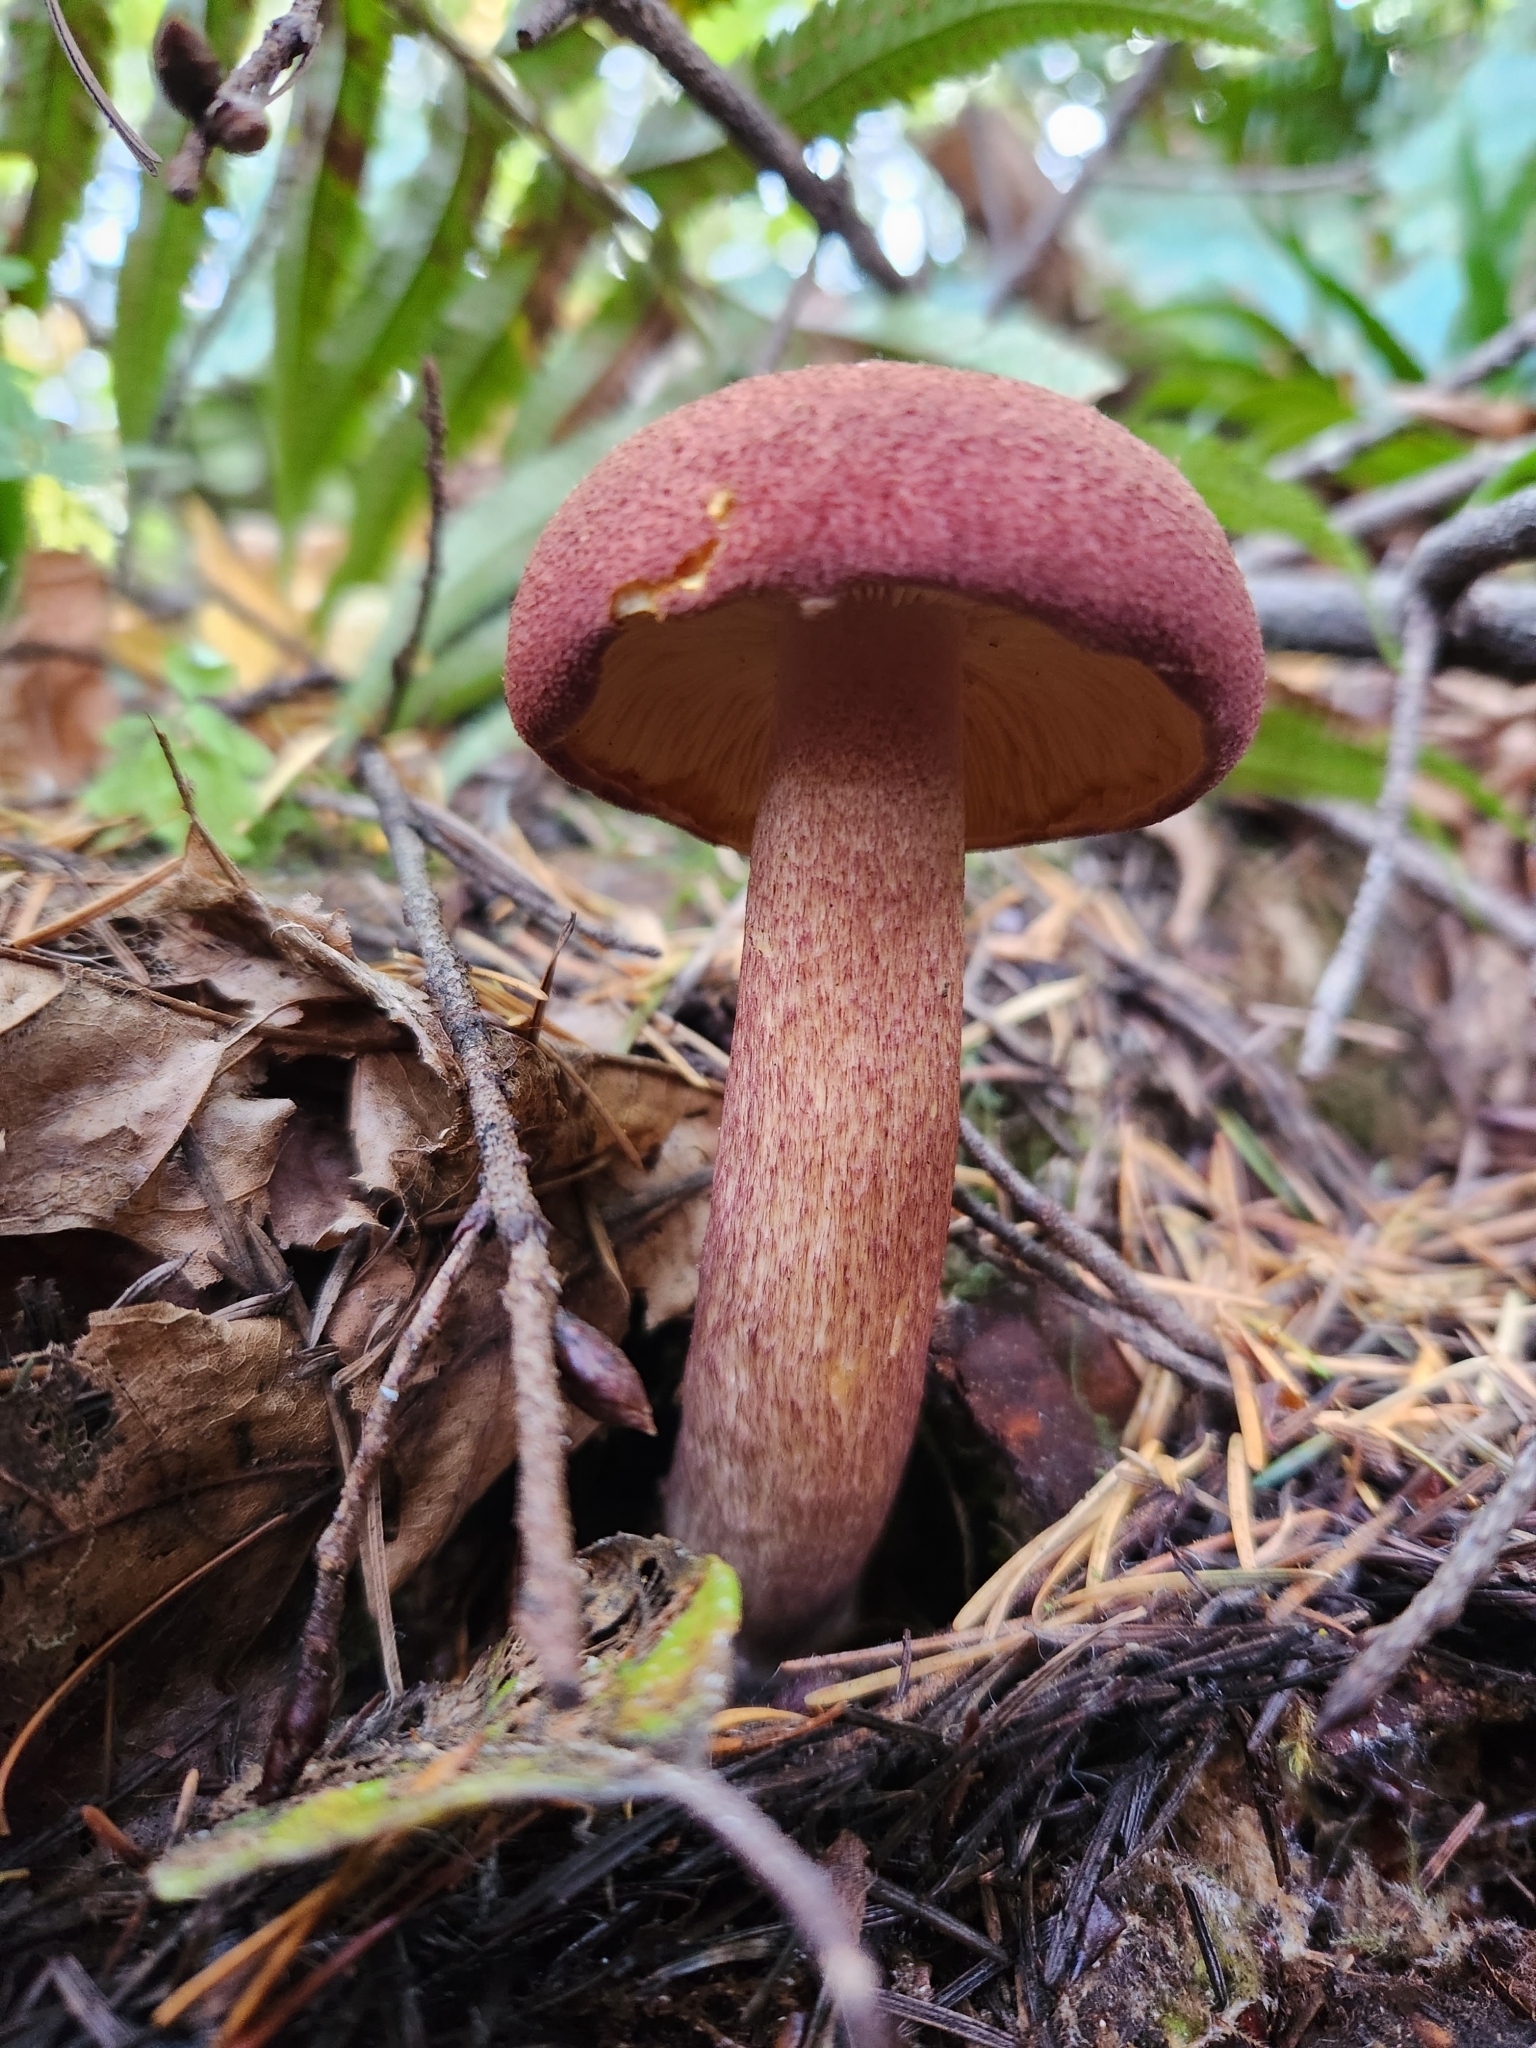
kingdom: Fungi
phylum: Basidiomycota
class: Agaricomycetes
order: Agaricales
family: Tricholomataceae
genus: Tricholomopsis
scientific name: Tricholomopsis rutilans
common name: Plums and custard
